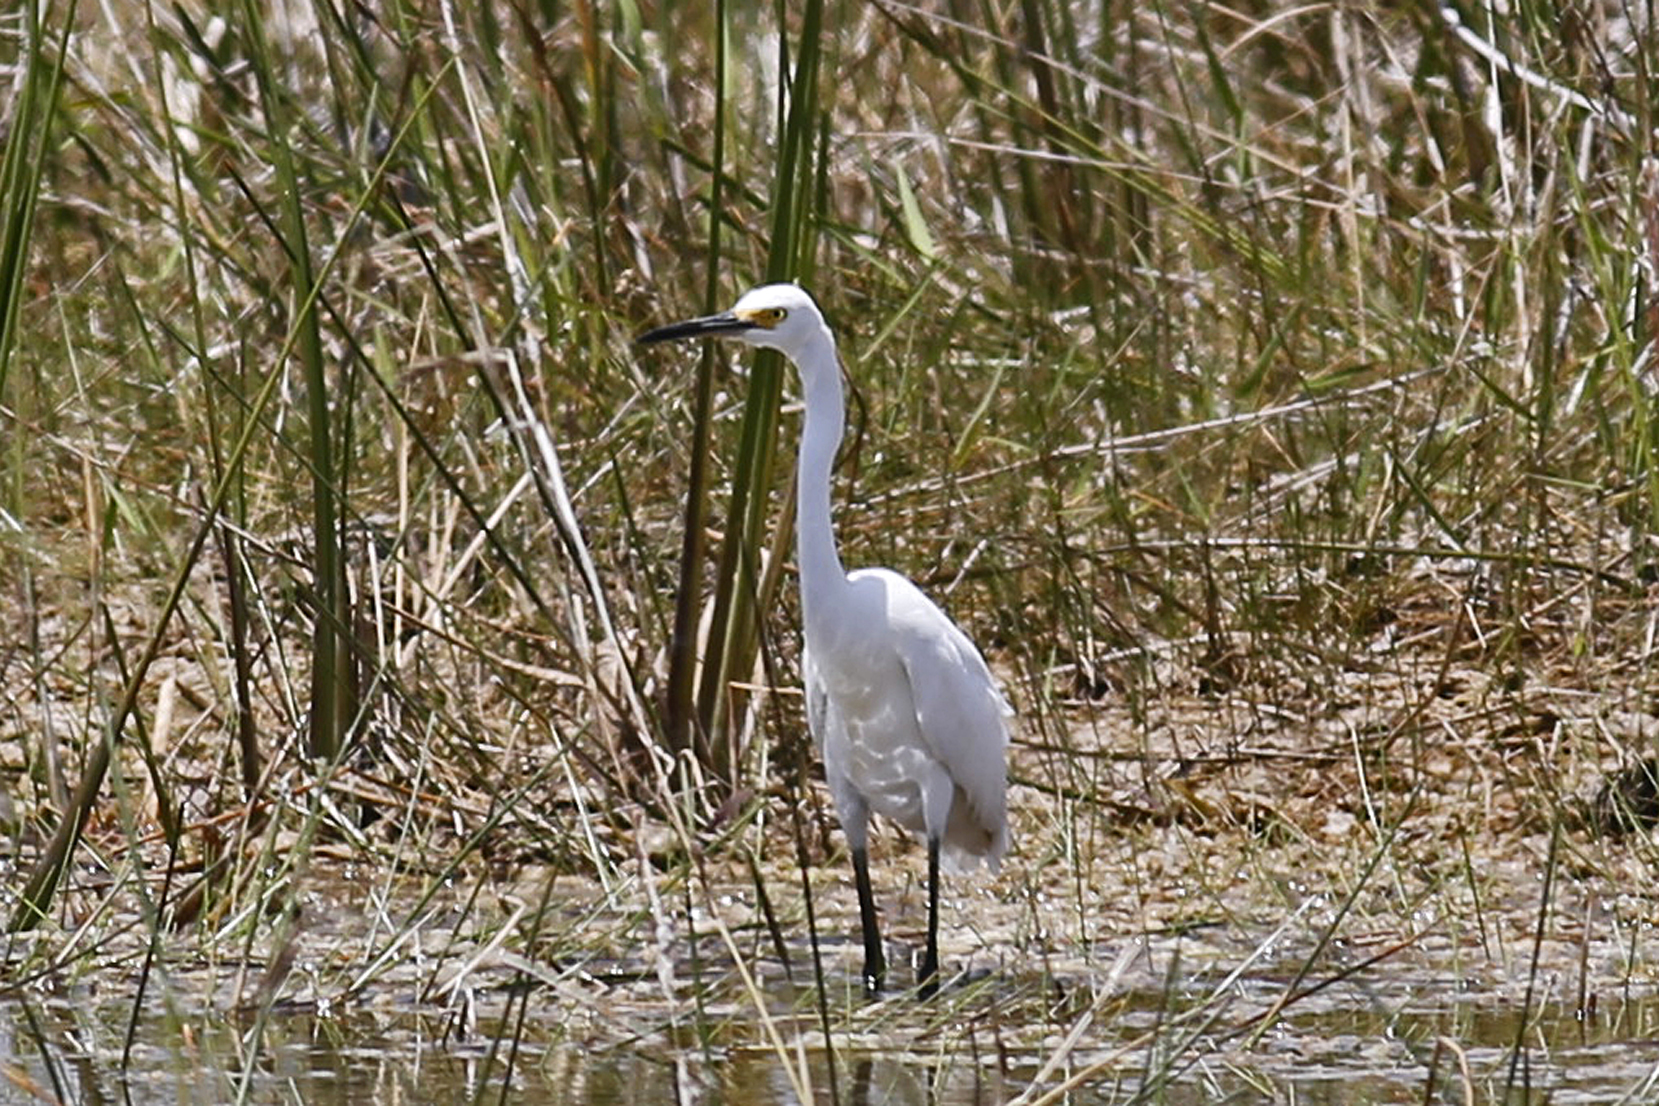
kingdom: Animalia
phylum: Chordata
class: Aves
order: Pelecaniformes
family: Ardeidae
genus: Egretta
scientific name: Egretta thula
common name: Snowy egret
